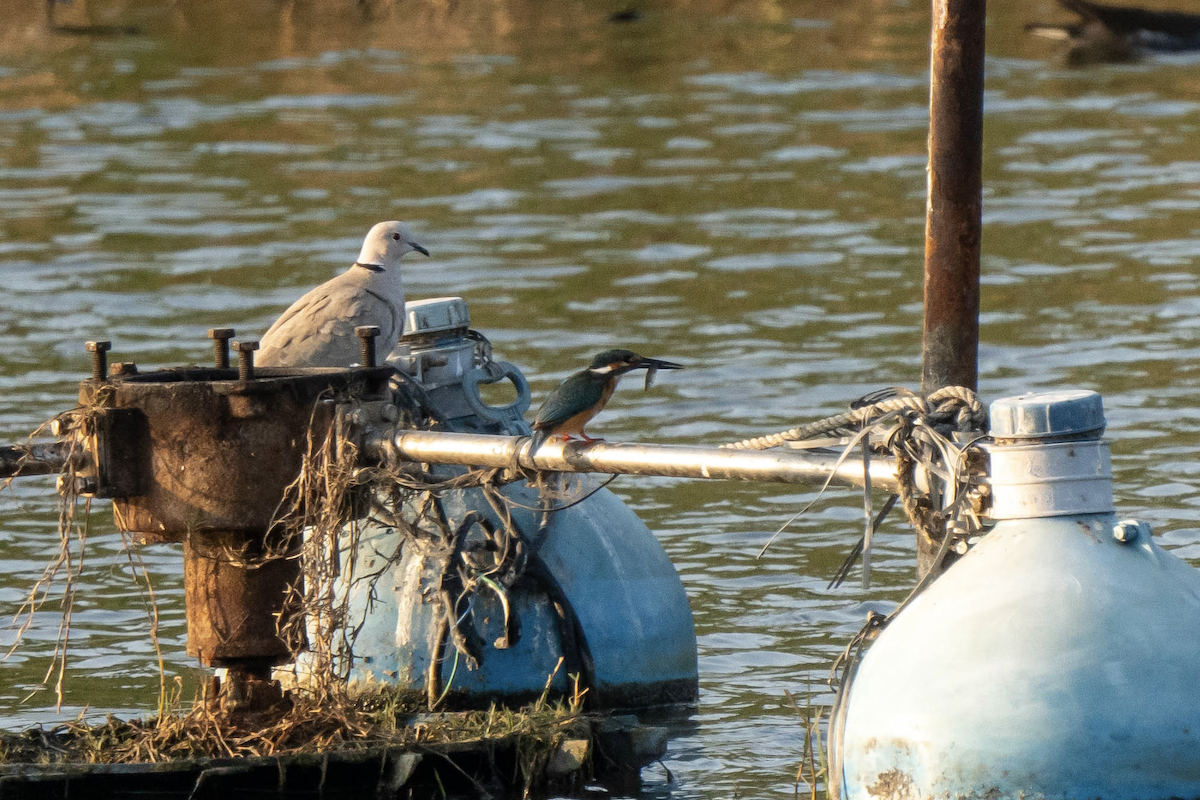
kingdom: Animalia
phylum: Chordata
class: Aves
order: Coraciiformes
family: Alcedinidae
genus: Alcedo
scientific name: Alcedo atthis
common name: Common kingfisher
